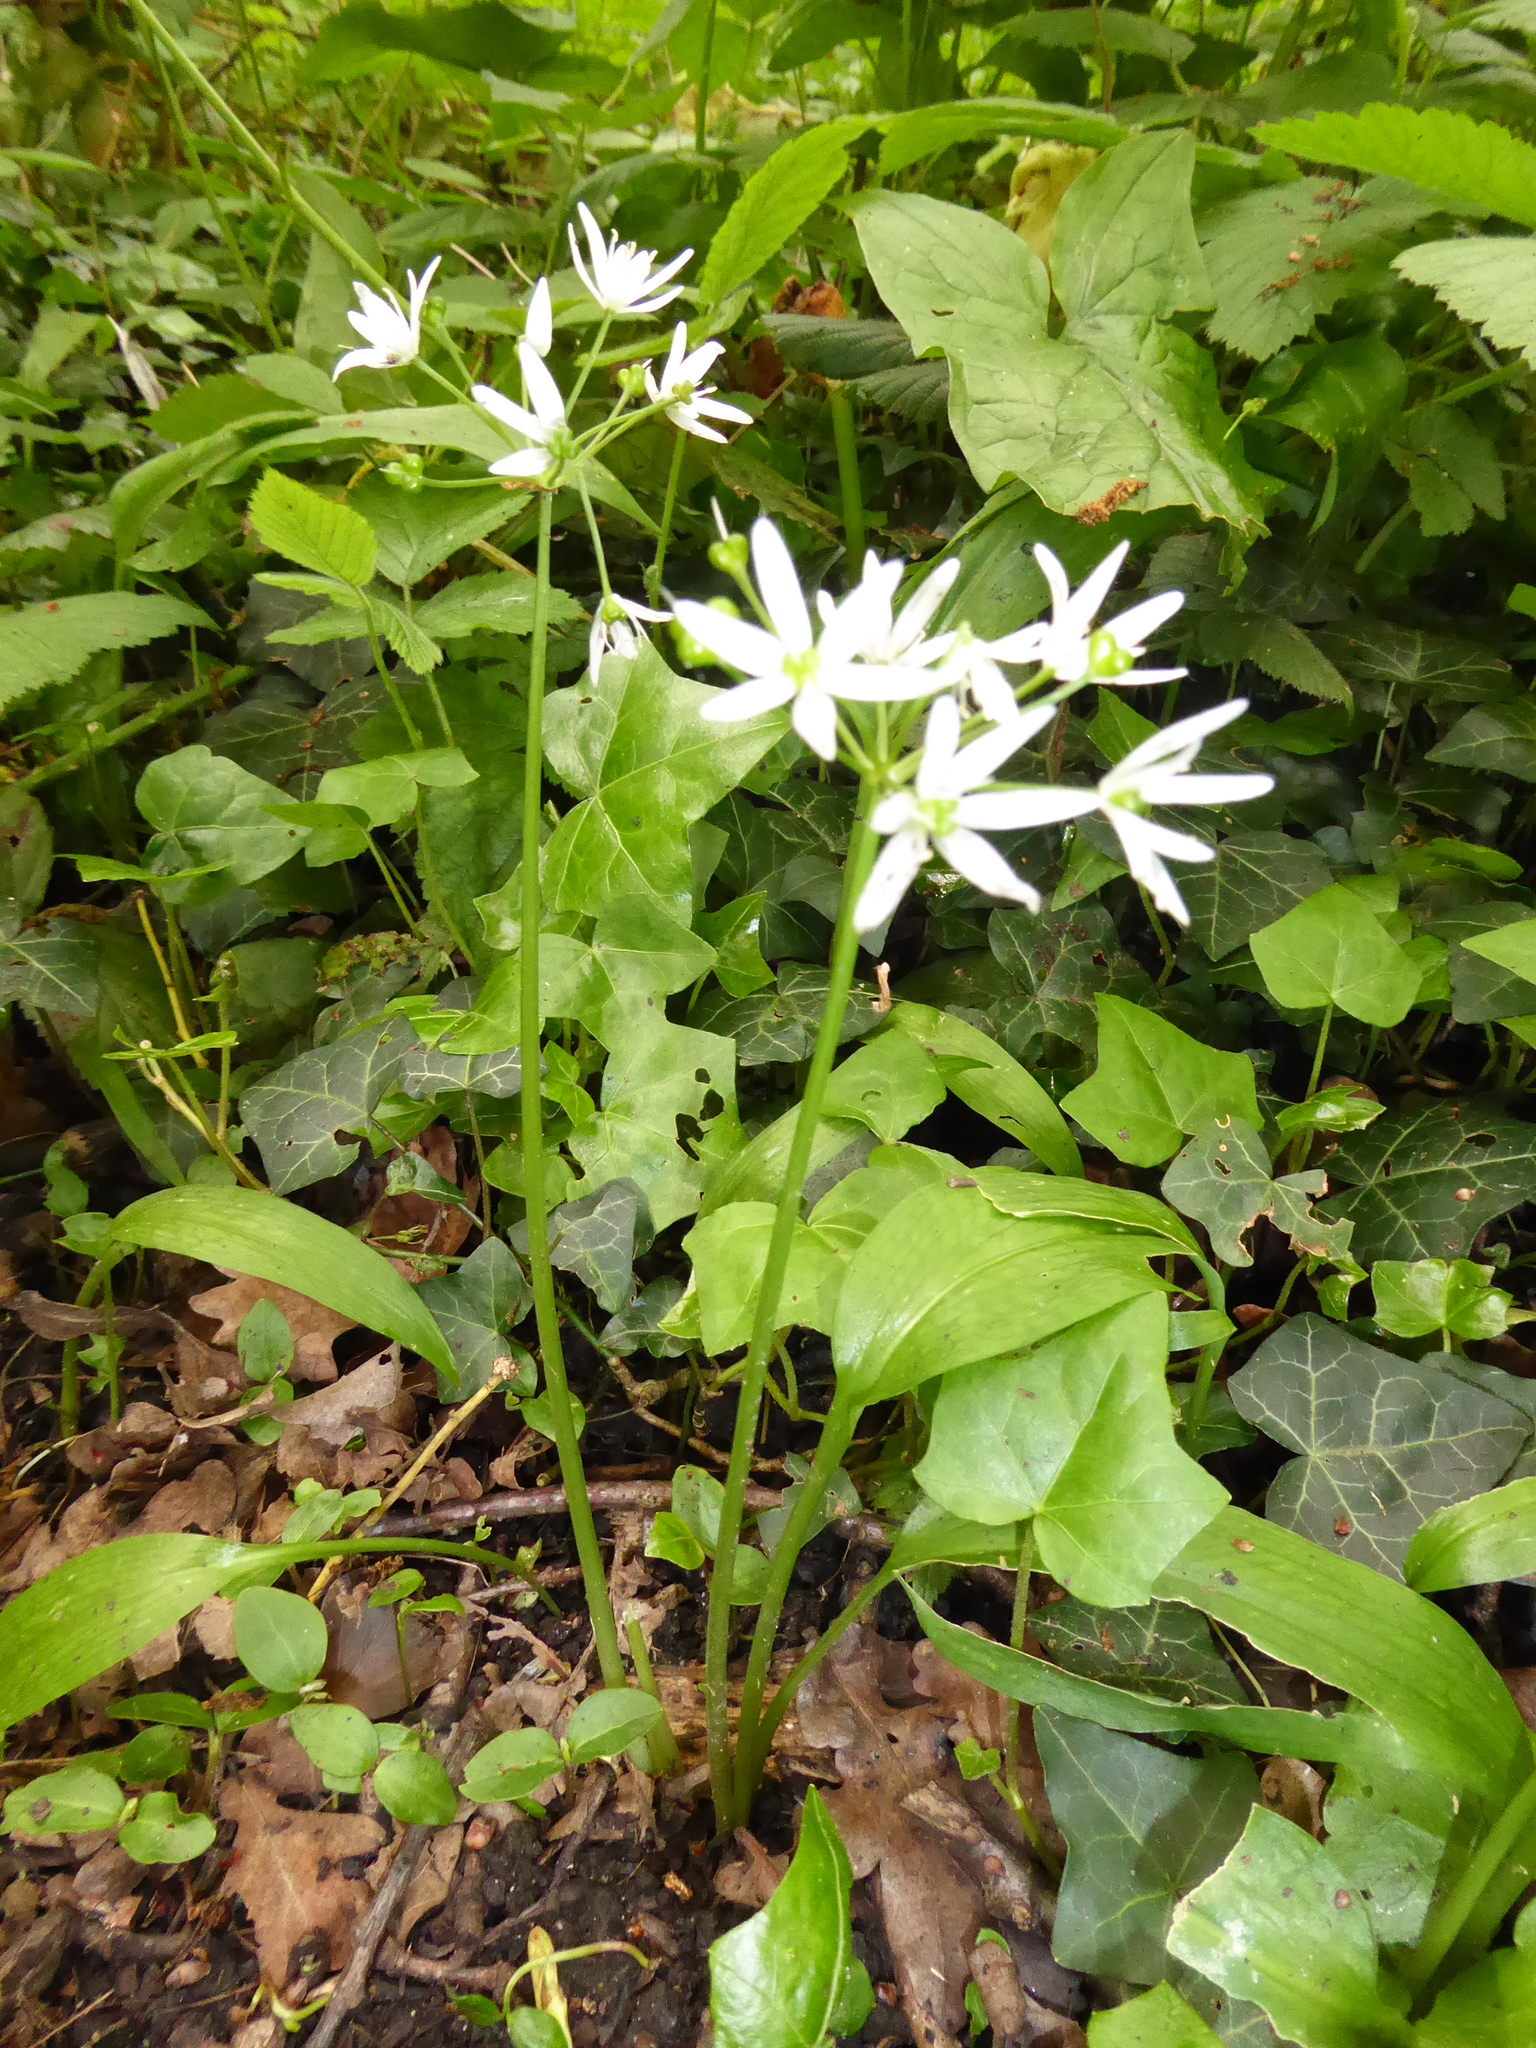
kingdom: Plantae
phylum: Tracheophyta
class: Liliopsida
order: Asparagales
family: Amaryllidaceae
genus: Allium
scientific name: Allium ursinum
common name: Ramsons
